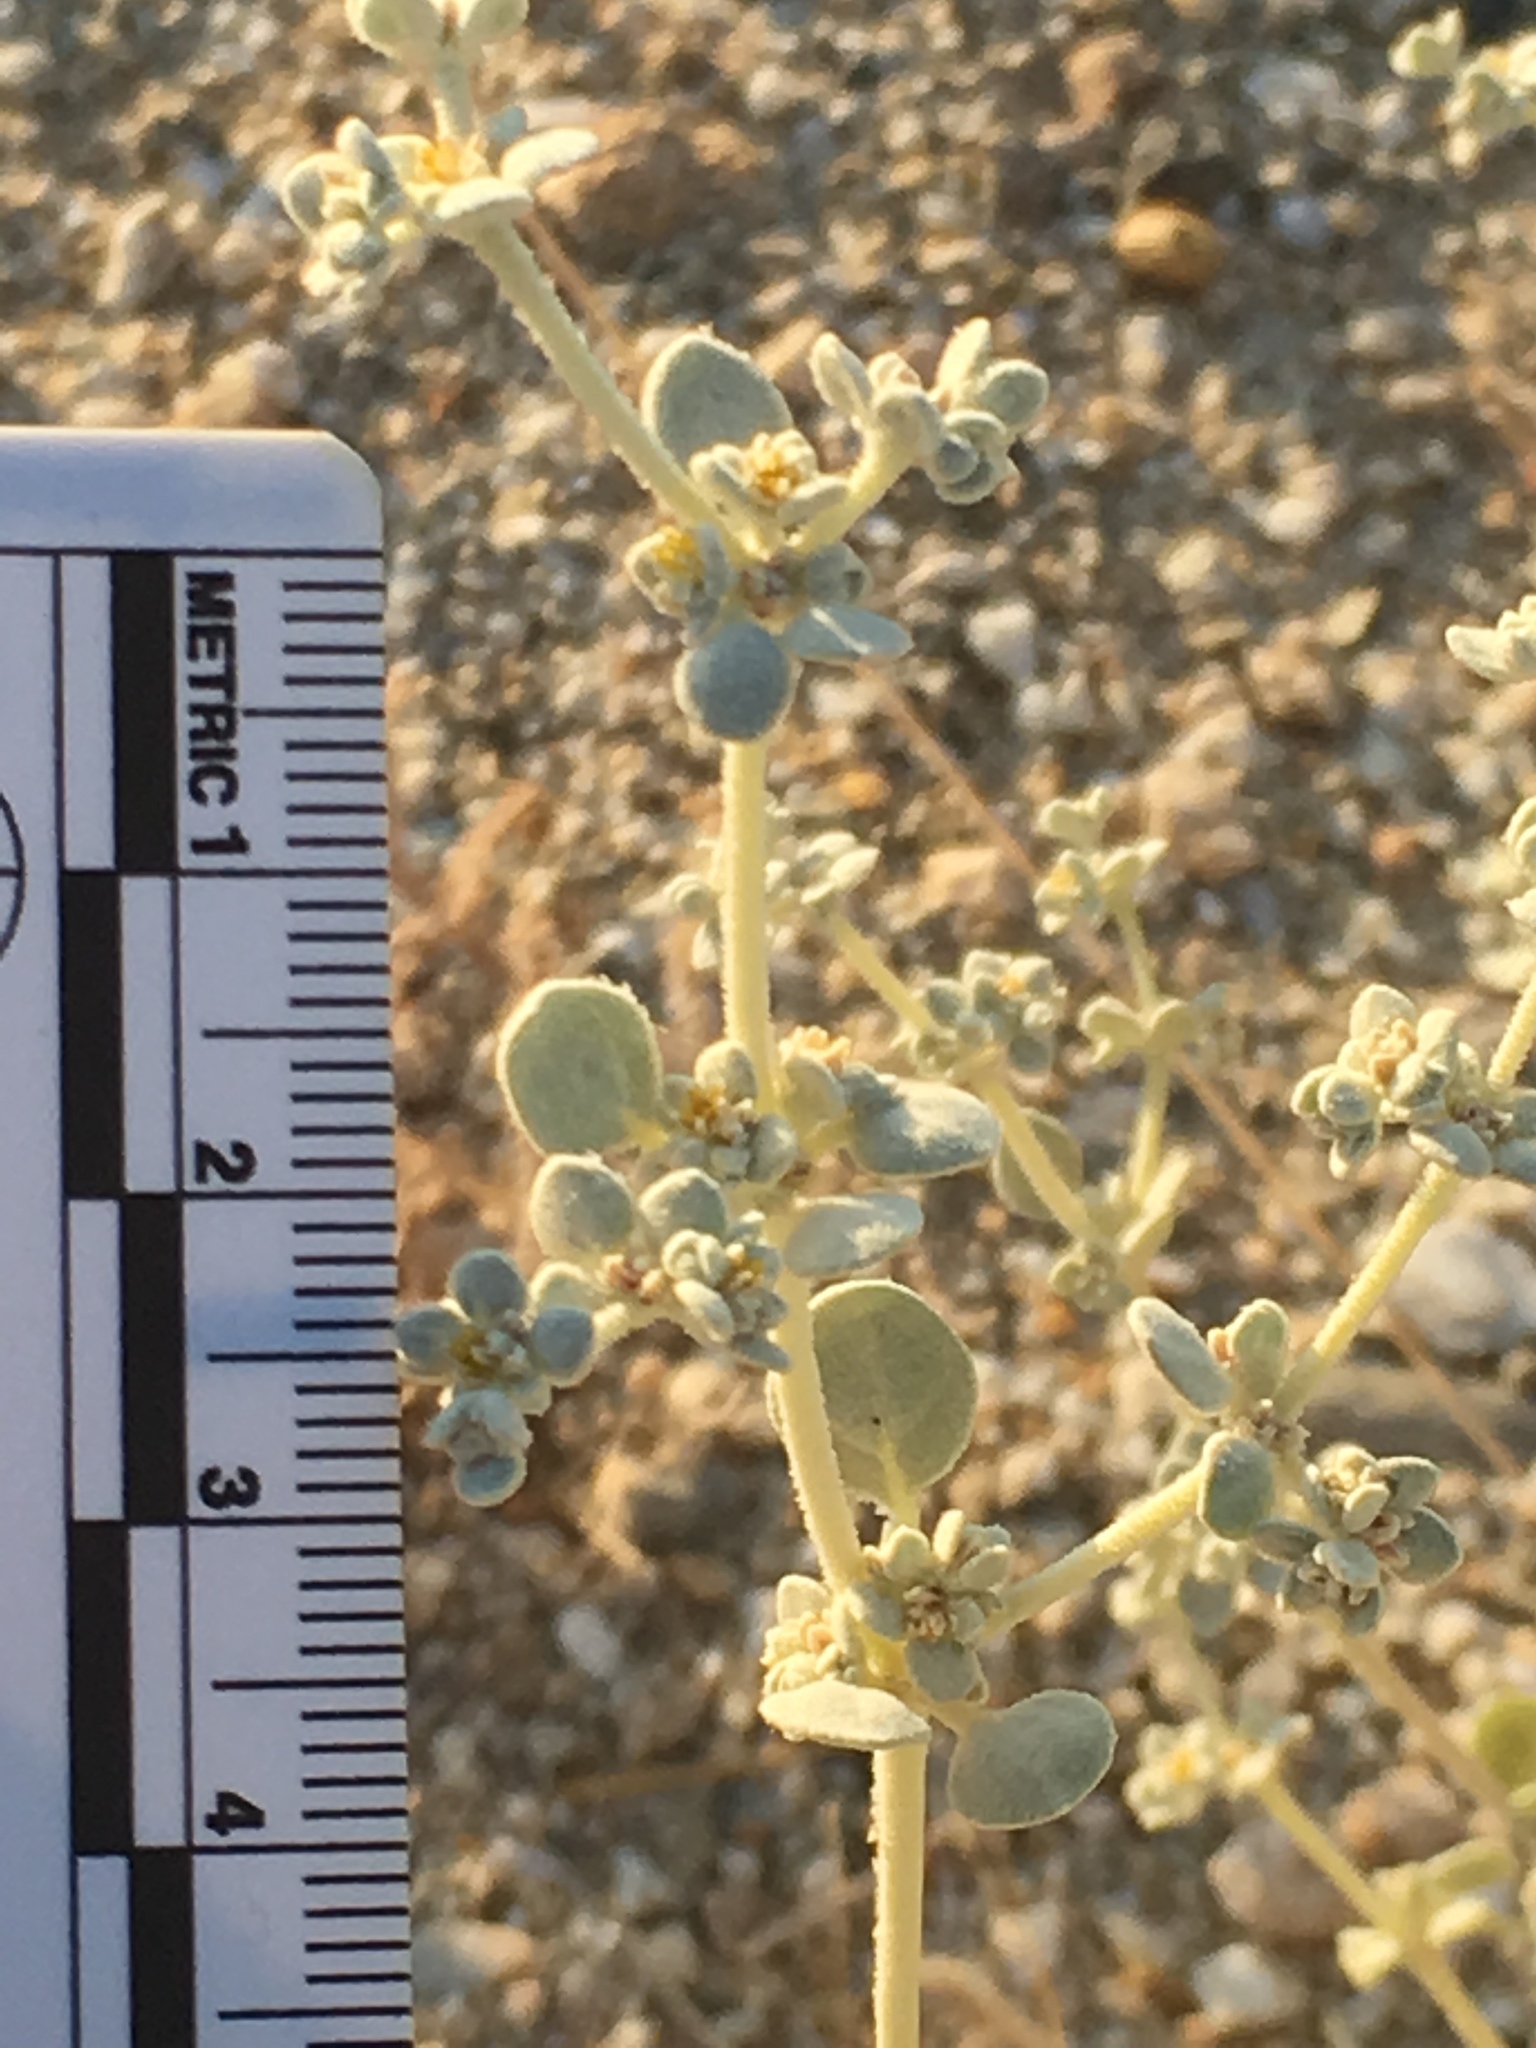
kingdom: Plantae
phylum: Tracheophyta
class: Magnoliopsida
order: Caryophyllales
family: Amaranthaceae
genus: Tidestromia
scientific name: Tidestromia suffruticosa
